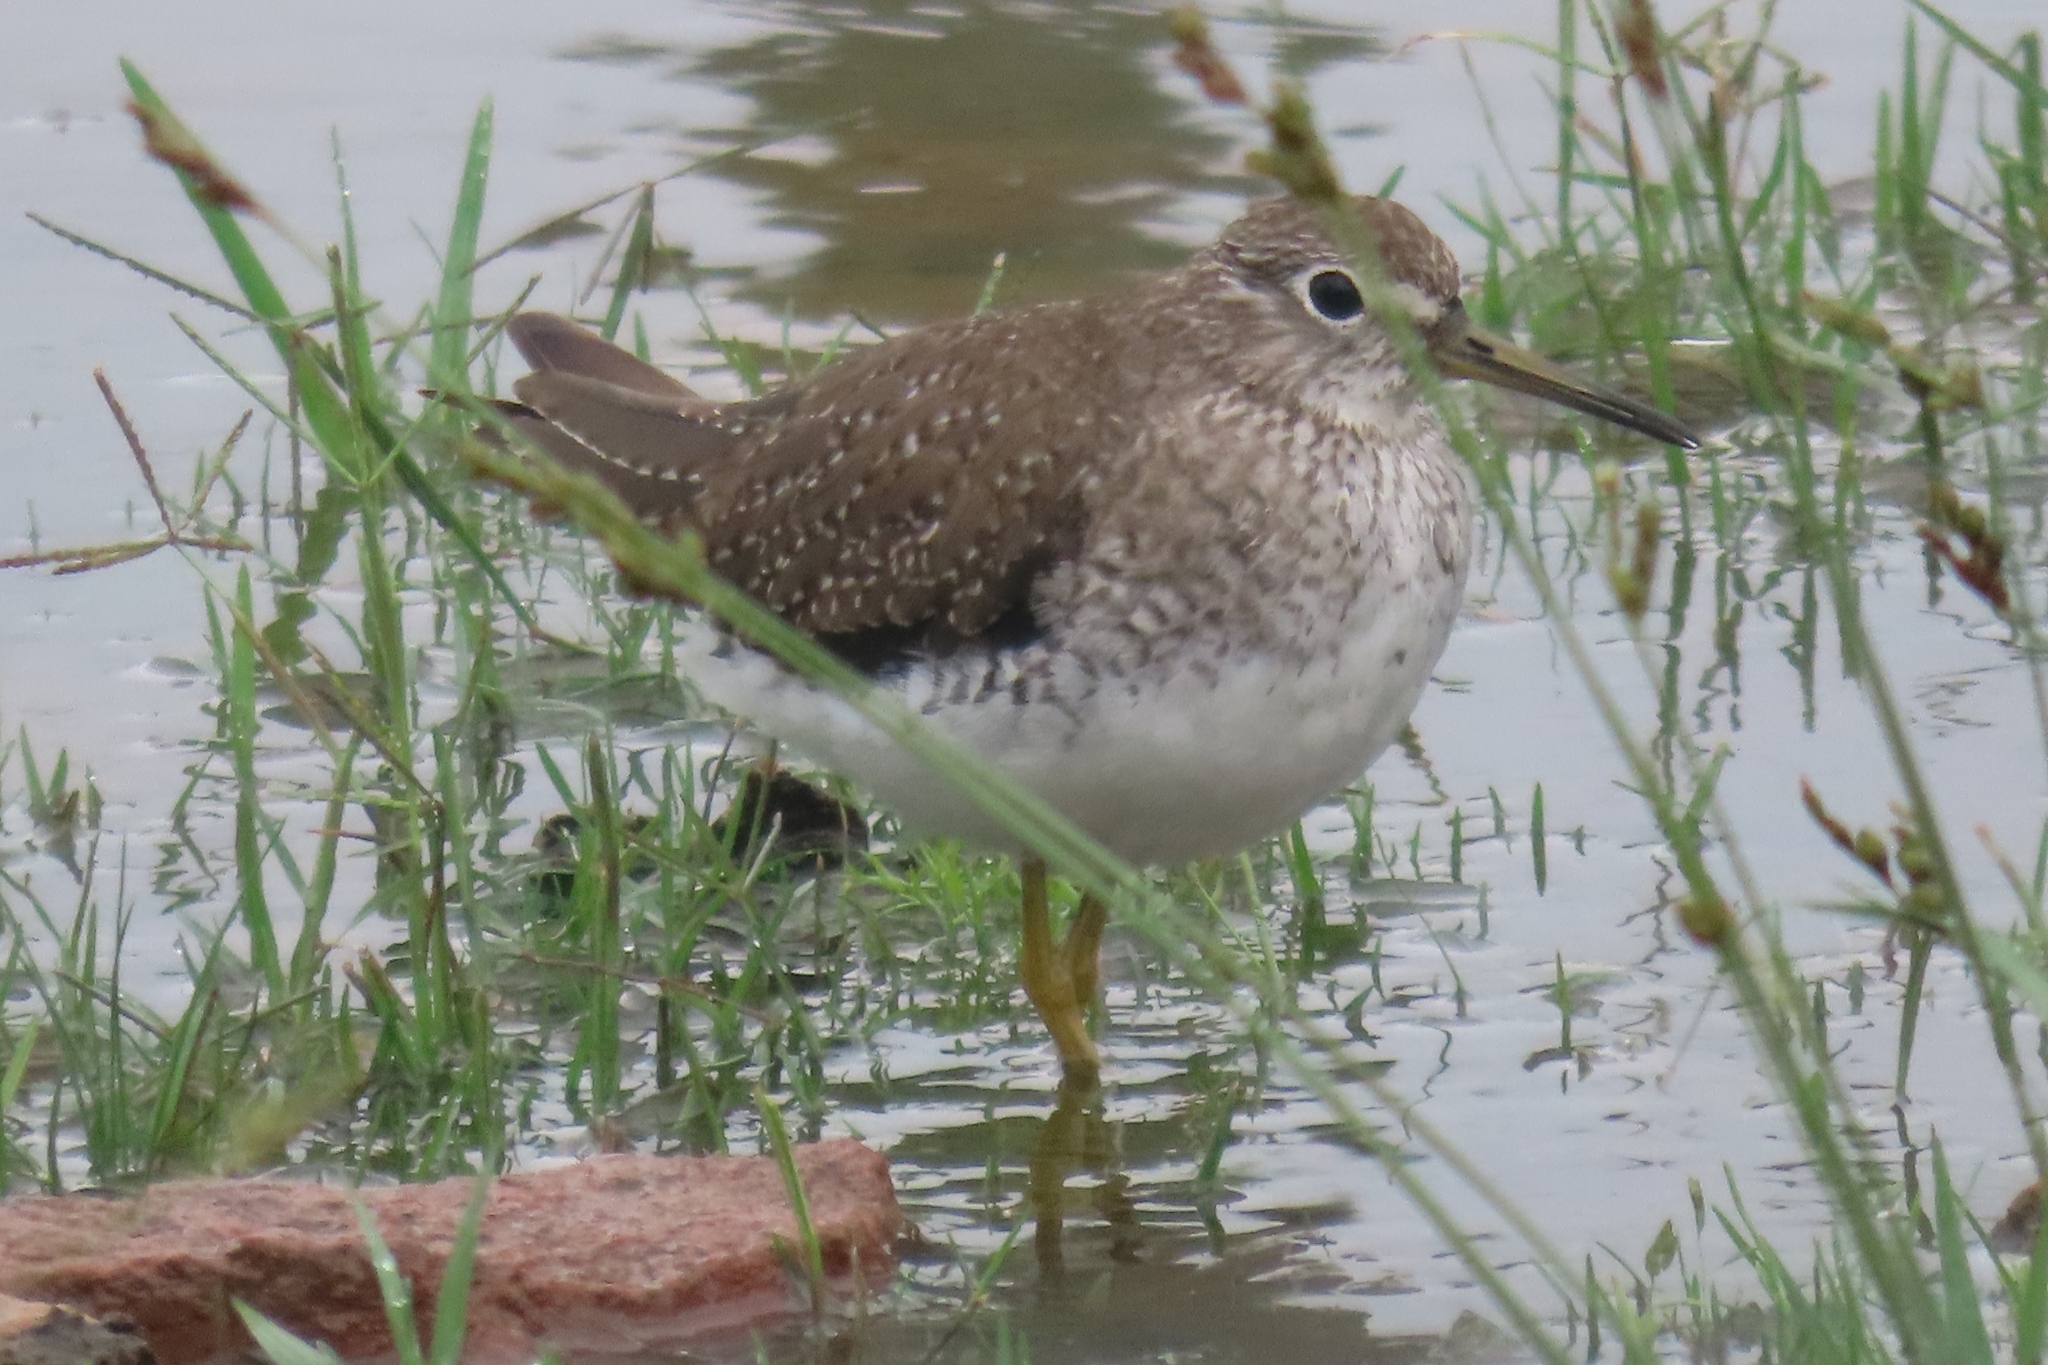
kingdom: Animalia
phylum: Chordata
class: Aves
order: Charadriiformes
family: Scolopacidae
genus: Tringa
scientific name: Tringa solitaria
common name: Solitary sandpiper
